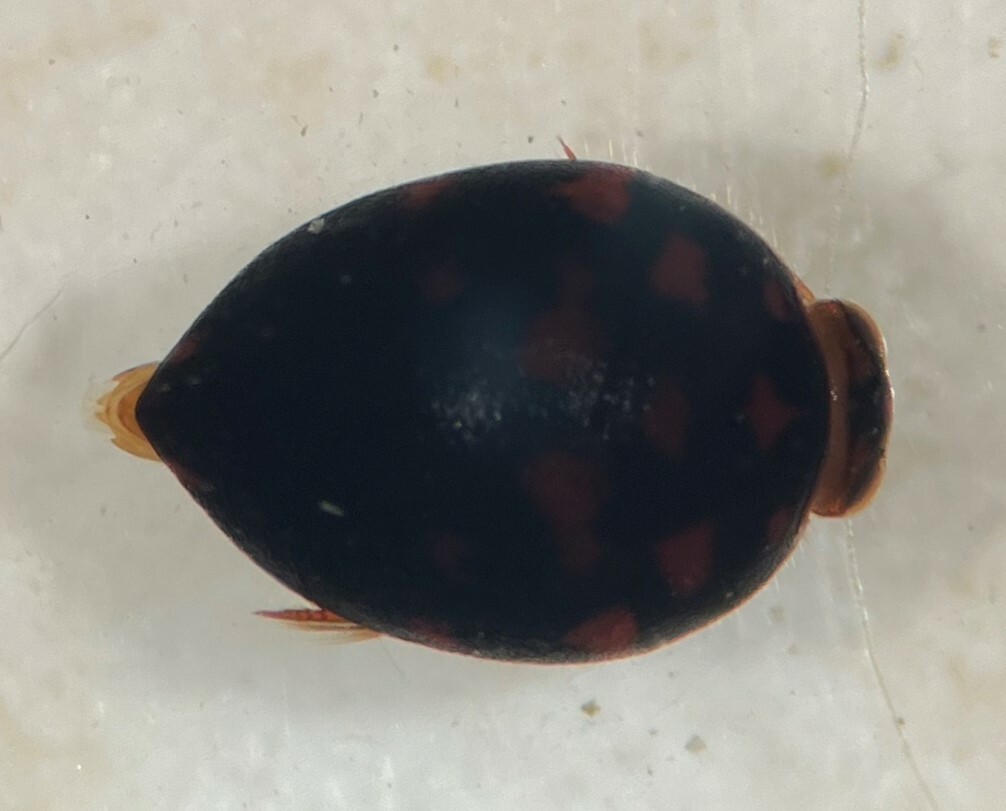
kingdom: Animalia
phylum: Arthropoda
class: Insecta
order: Coleoptera
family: Noteridae
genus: Suphis
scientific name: Suphis inflatus
